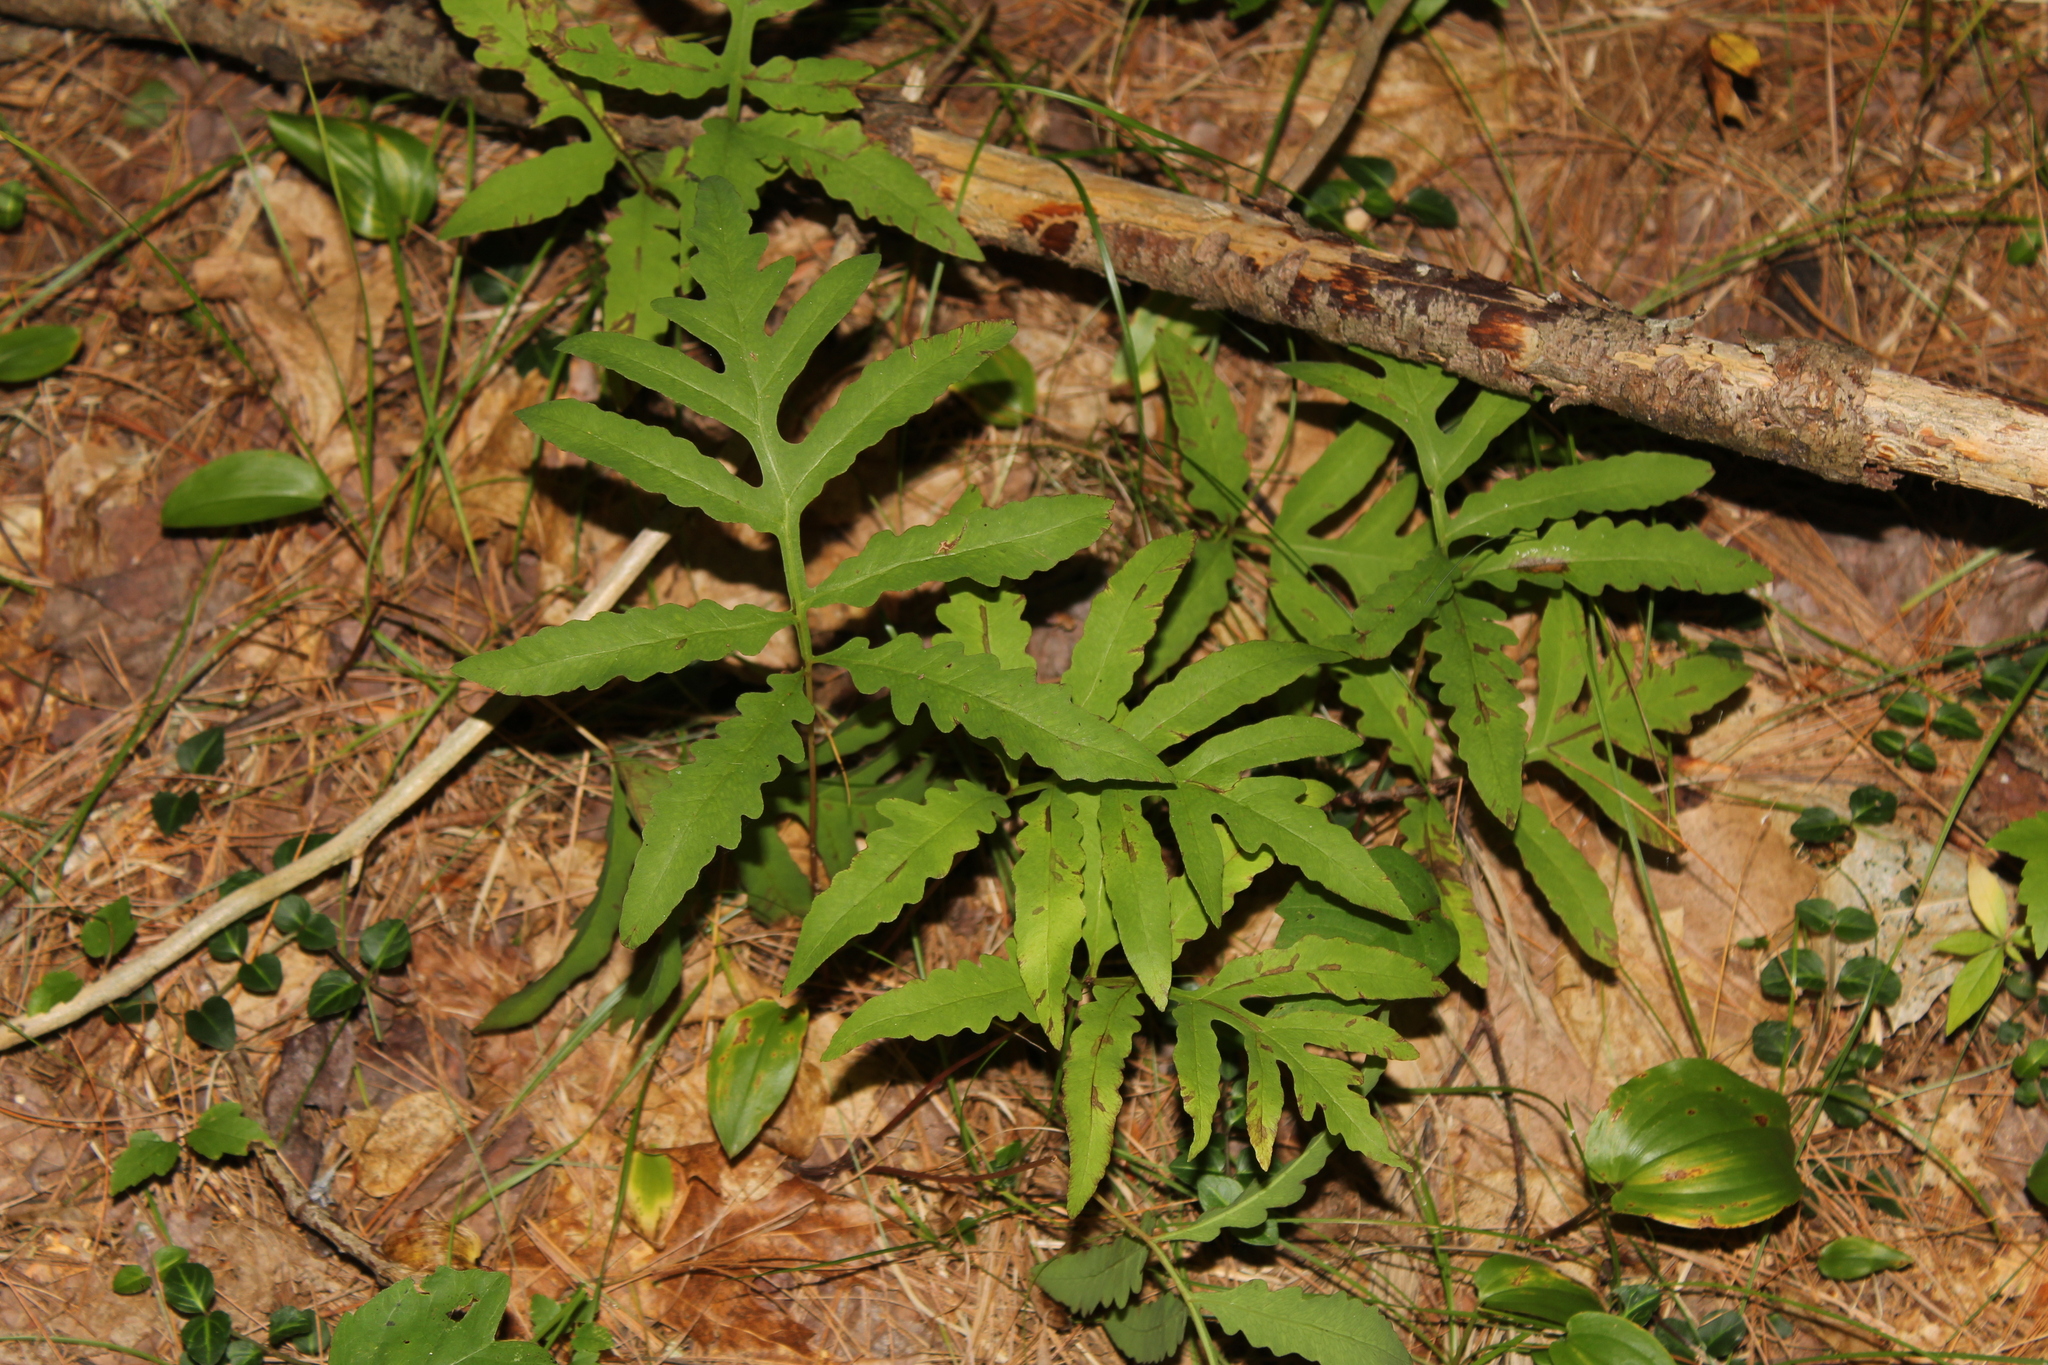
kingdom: Plantae
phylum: Tracheophyta
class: Polypodiopsida
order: Polypodiales
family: Onocleaceae
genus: Onoclea
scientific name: Onoclea sensibilis
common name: Sensitive fern
